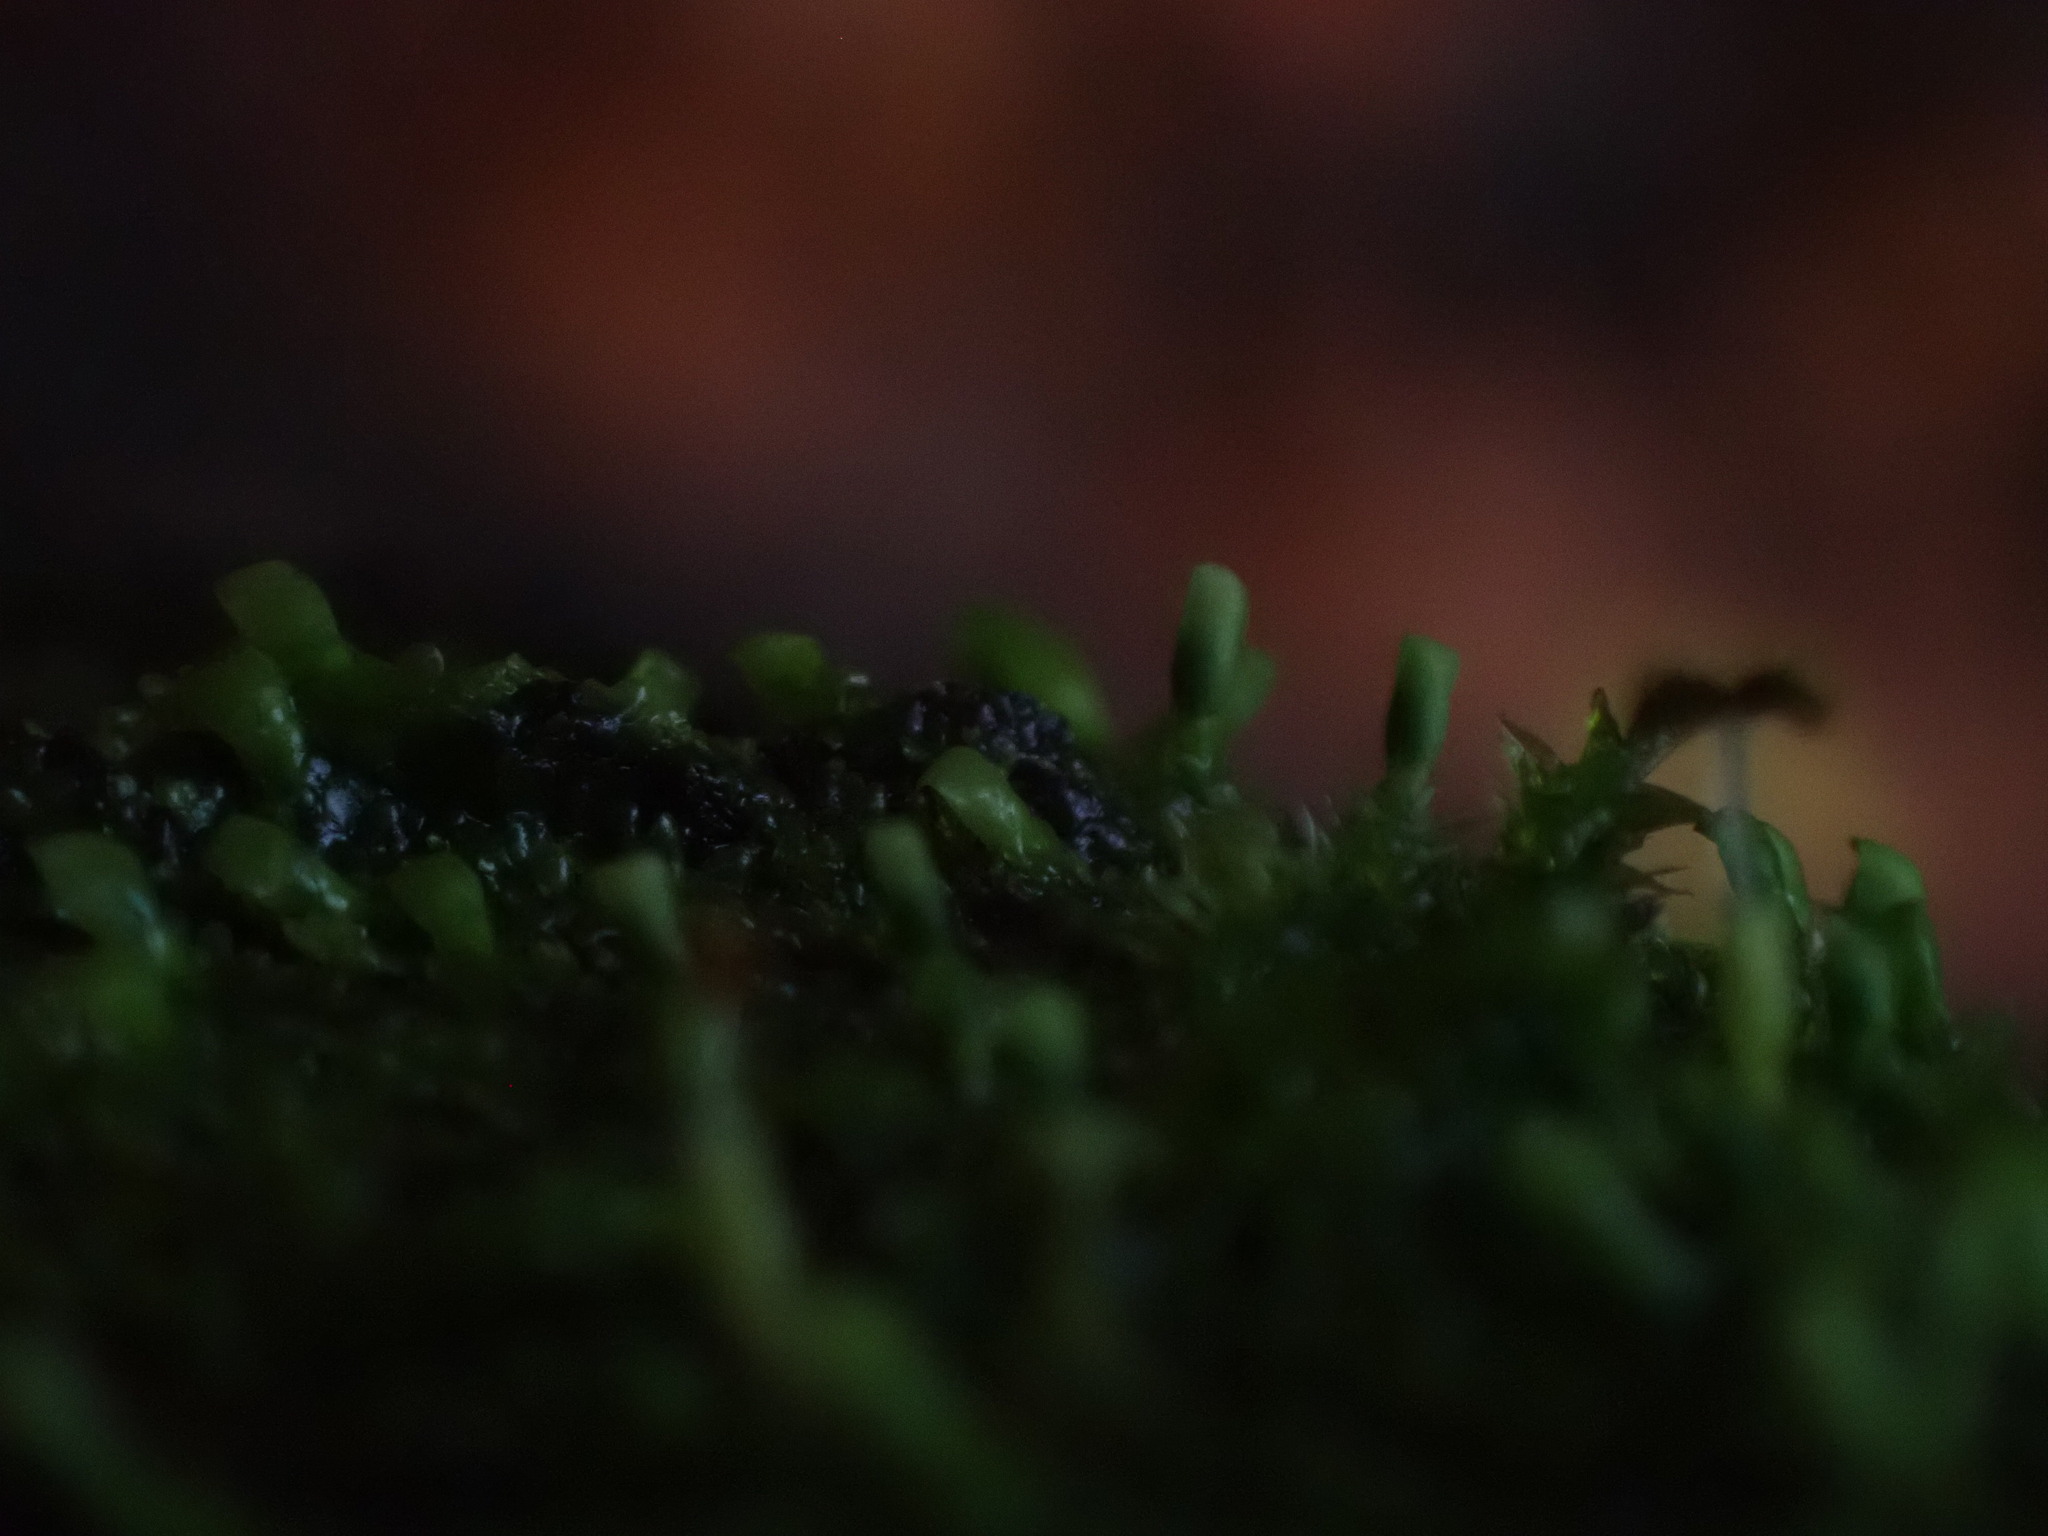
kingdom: Plantae
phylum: Marchantiophyta
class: Jungermanniopsida
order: Porellales
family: Radulaceae
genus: Radula
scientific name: Radula complanata
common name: Flat-leaved scalewort
